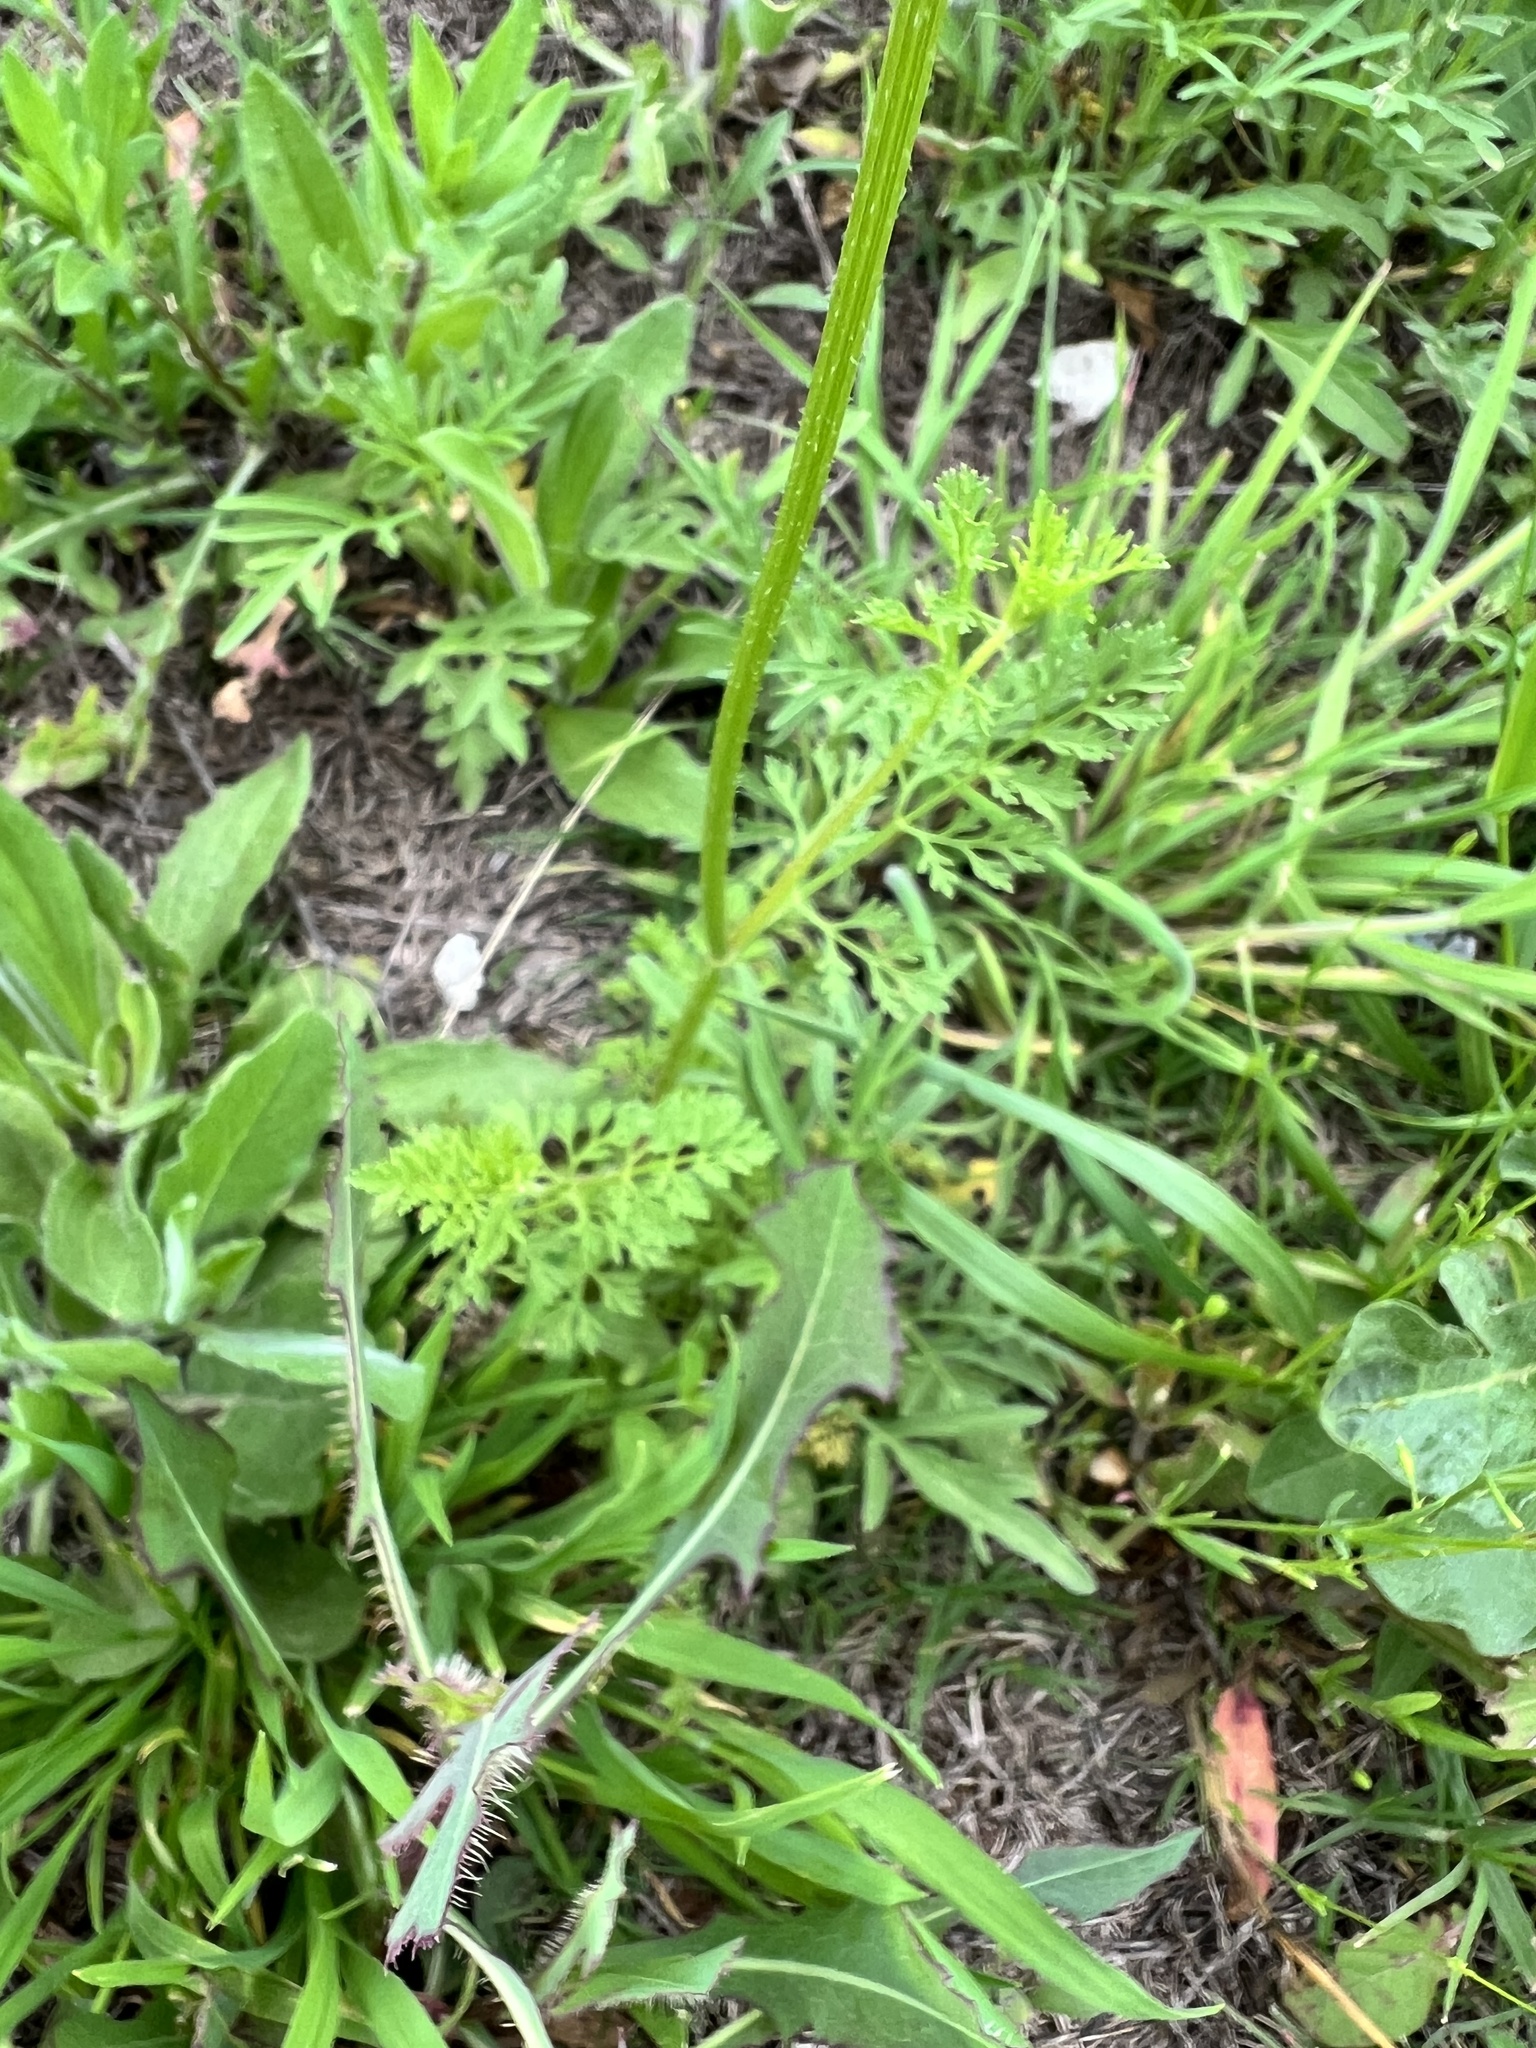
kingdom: Plantae
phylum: Tracheophyta
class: Magnoliopsida
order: Apiales
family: Apiaceae
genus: Daucus
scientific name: Daucus pusillus
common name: Southwest wild carrot
